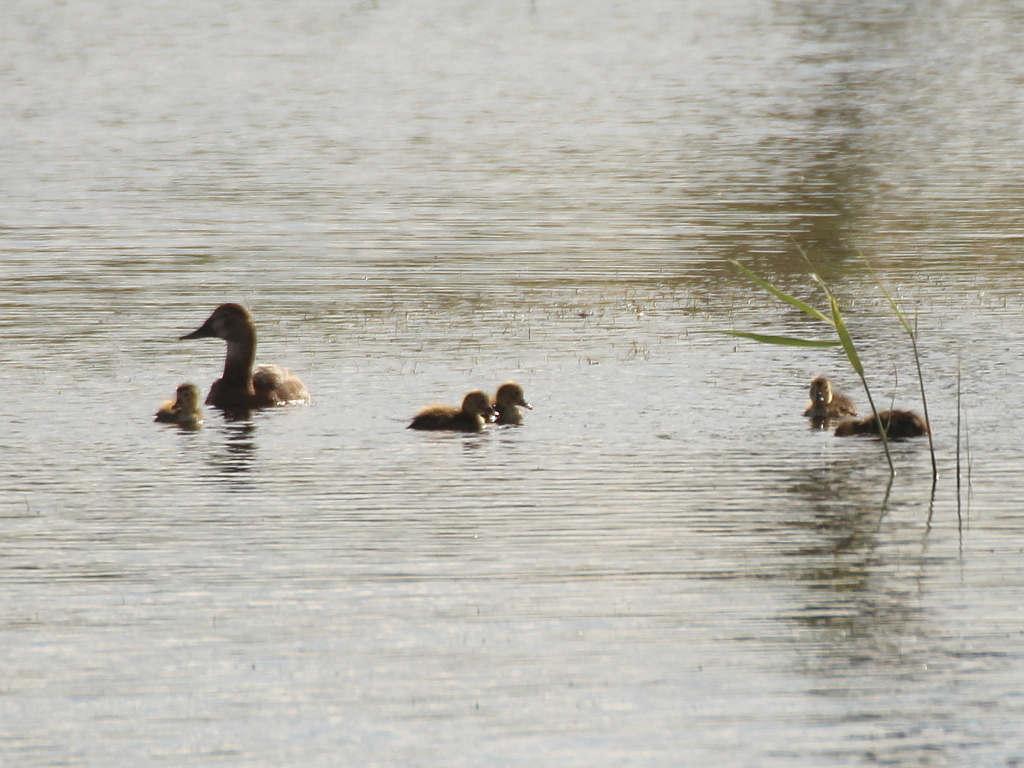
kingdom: Animalia
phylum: Chordata
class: Aves
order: Anseriformes
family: Anatidae
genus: Aythya
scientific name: Aythya ferina
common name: Common pochard
